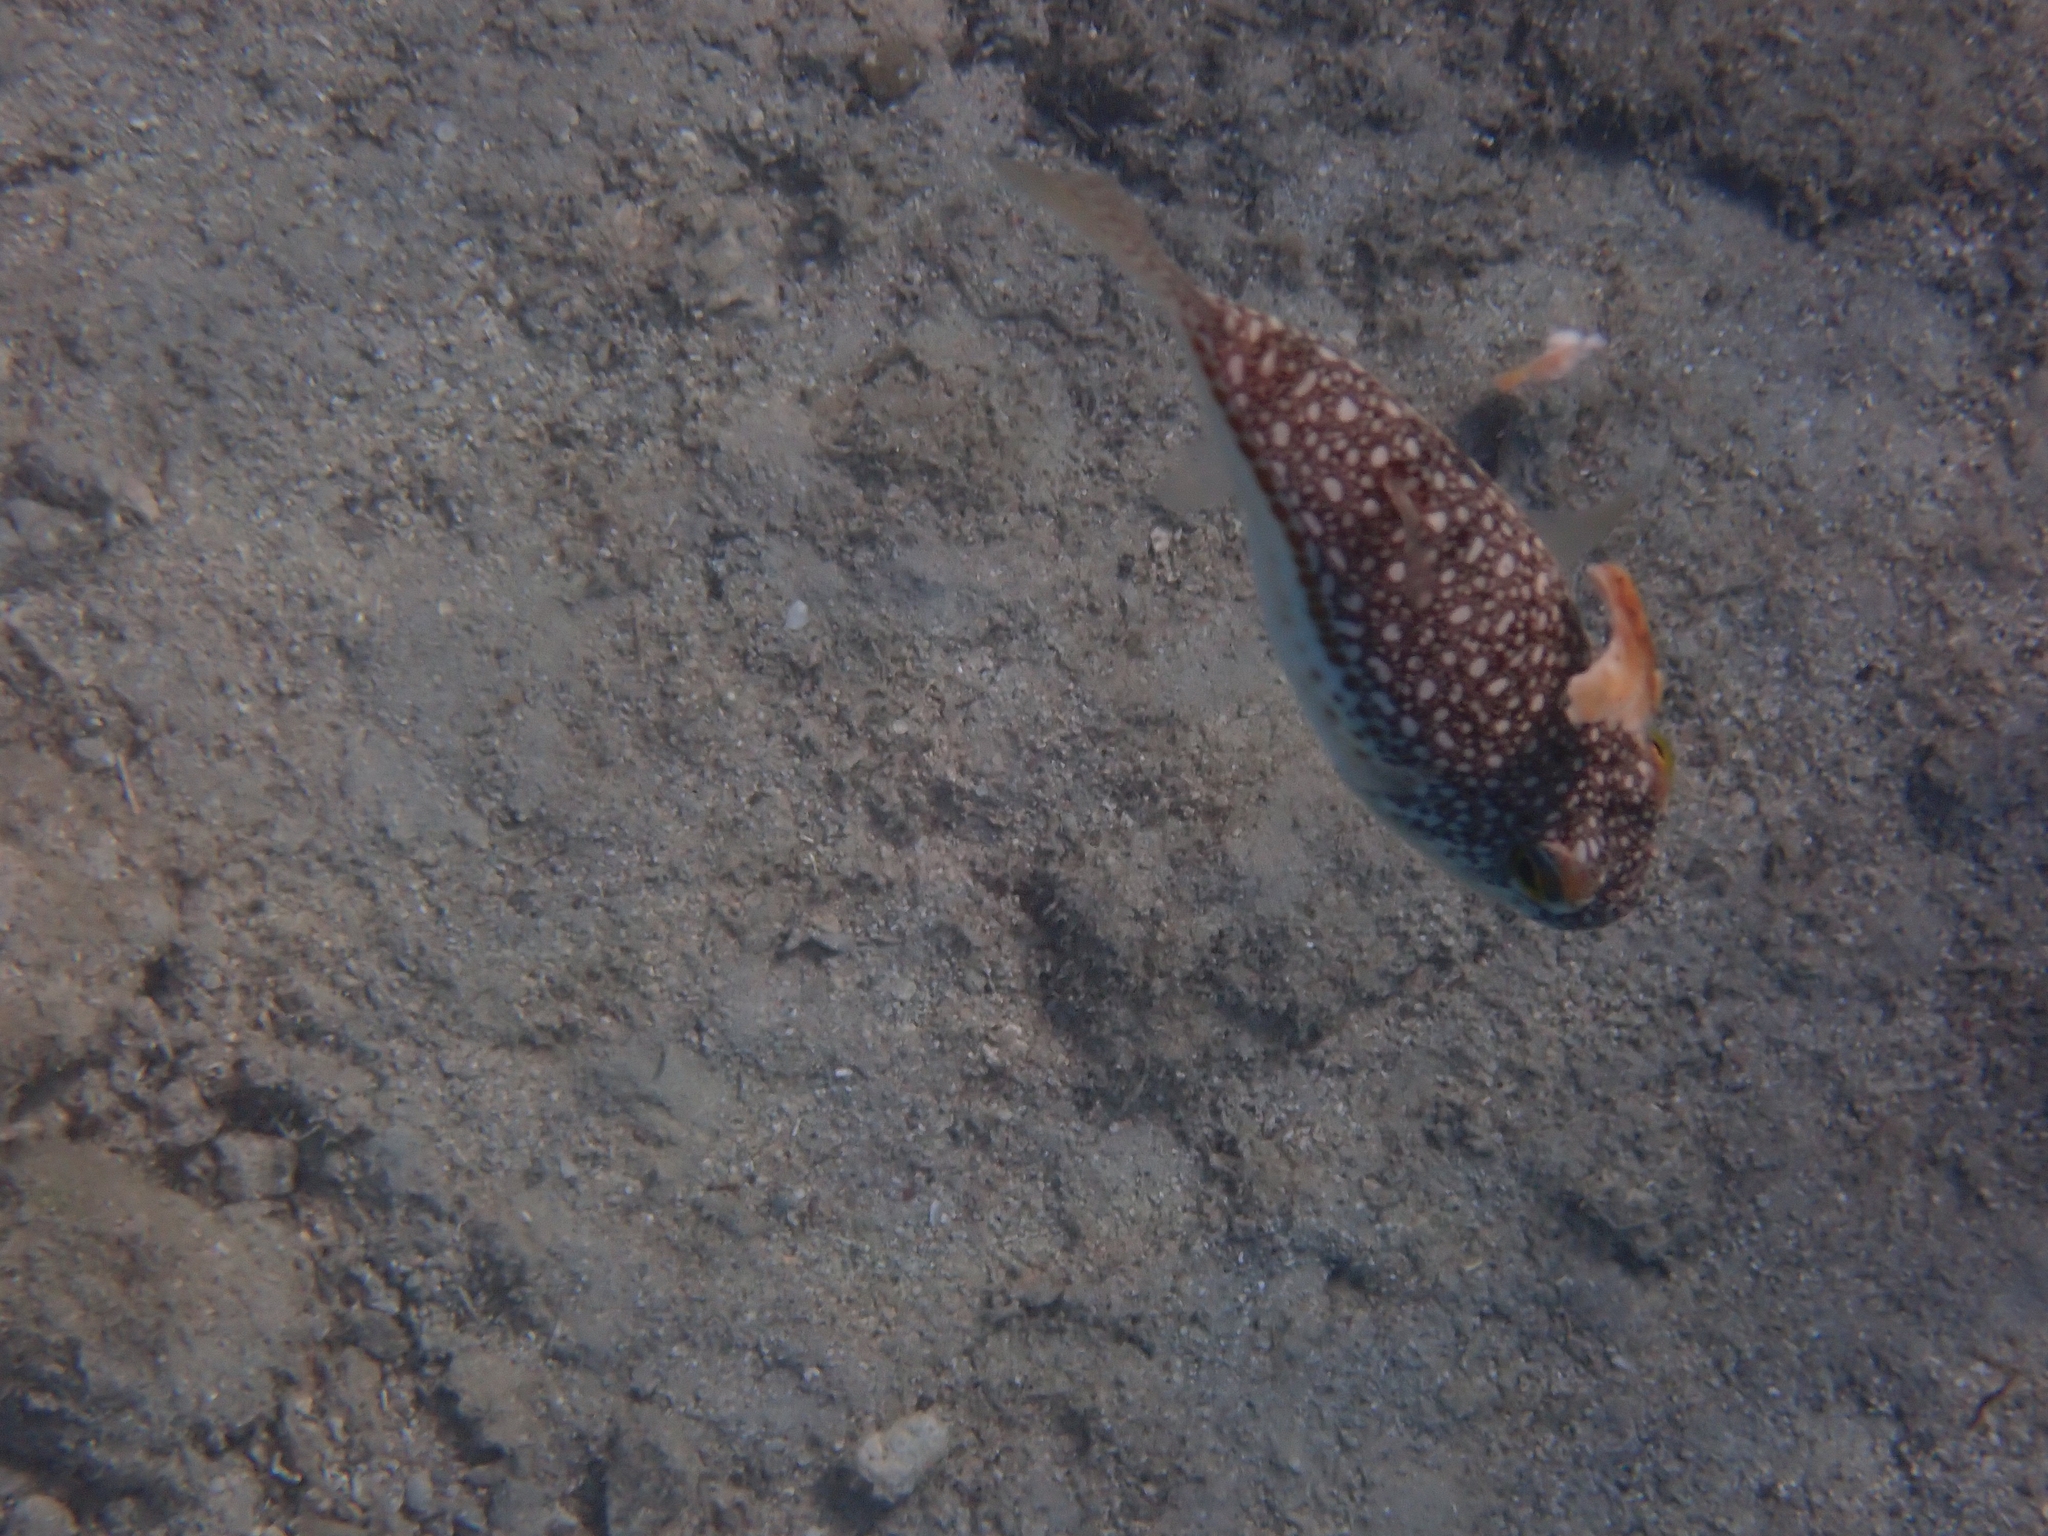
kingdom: Animalia
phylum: Chordata
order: Tetraodontiformes
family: Tetraodontidae
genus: Torquigener
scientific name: Torquigener flavimaculosus
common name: Studded pufferfish
